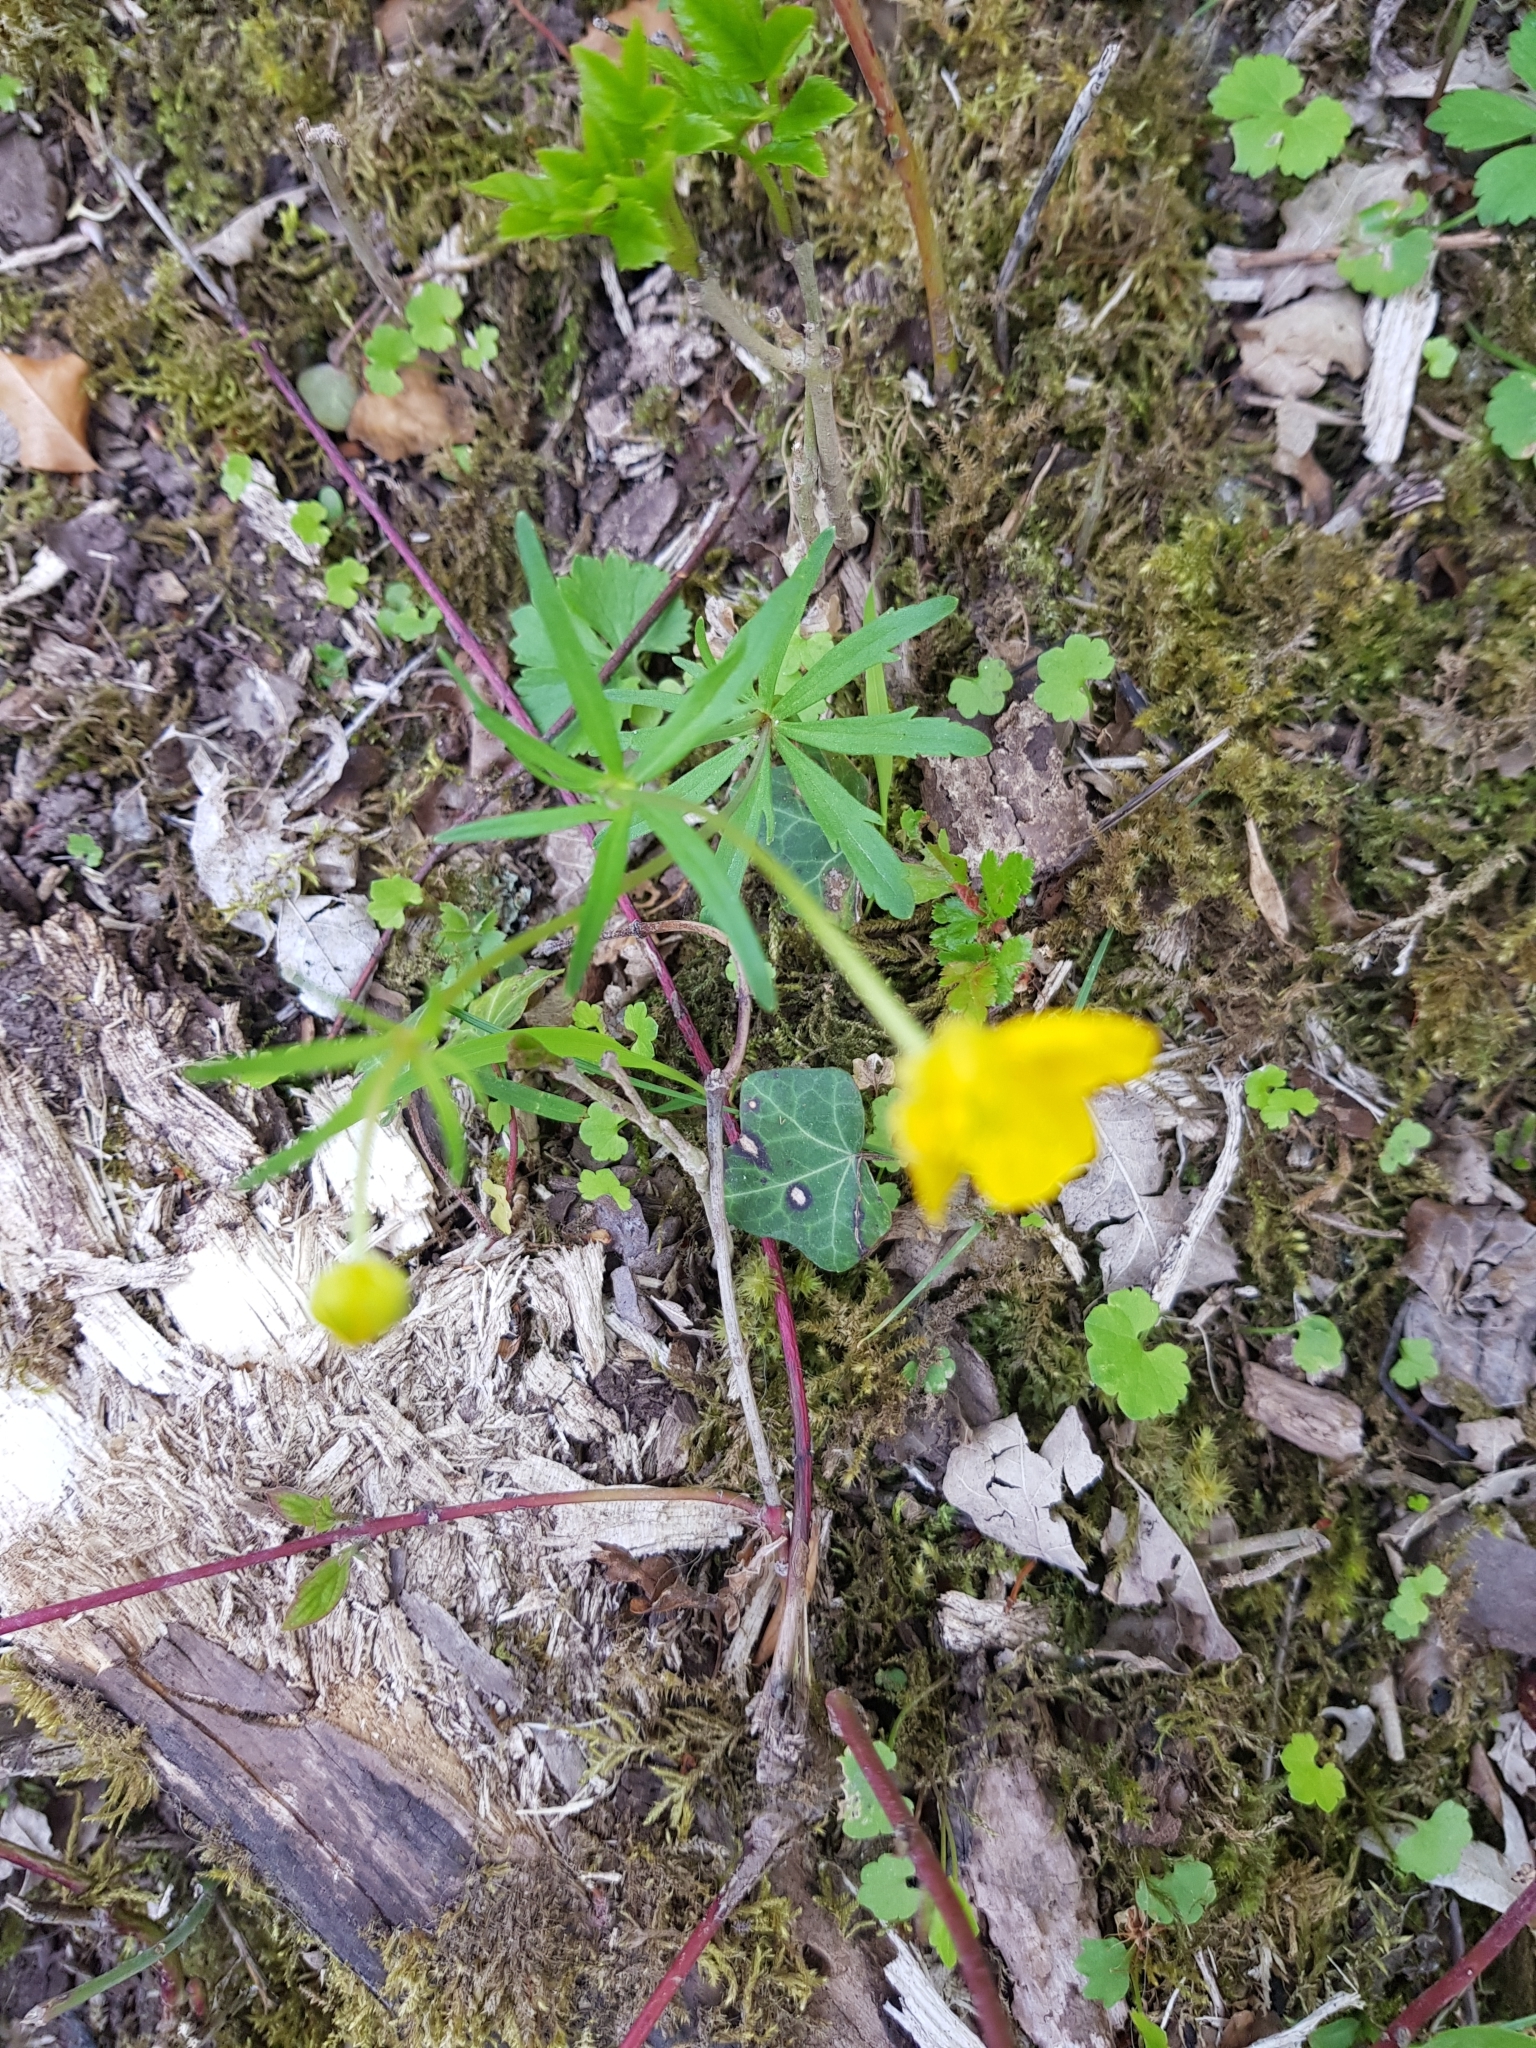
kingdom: Plantae
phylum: Tracheophyta
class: Magnoliopsida
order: Ranunculales
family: Ranunculaceae
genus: Ranunculus
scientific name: Ranunculus auricomus
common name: Goldilocks buttercup
